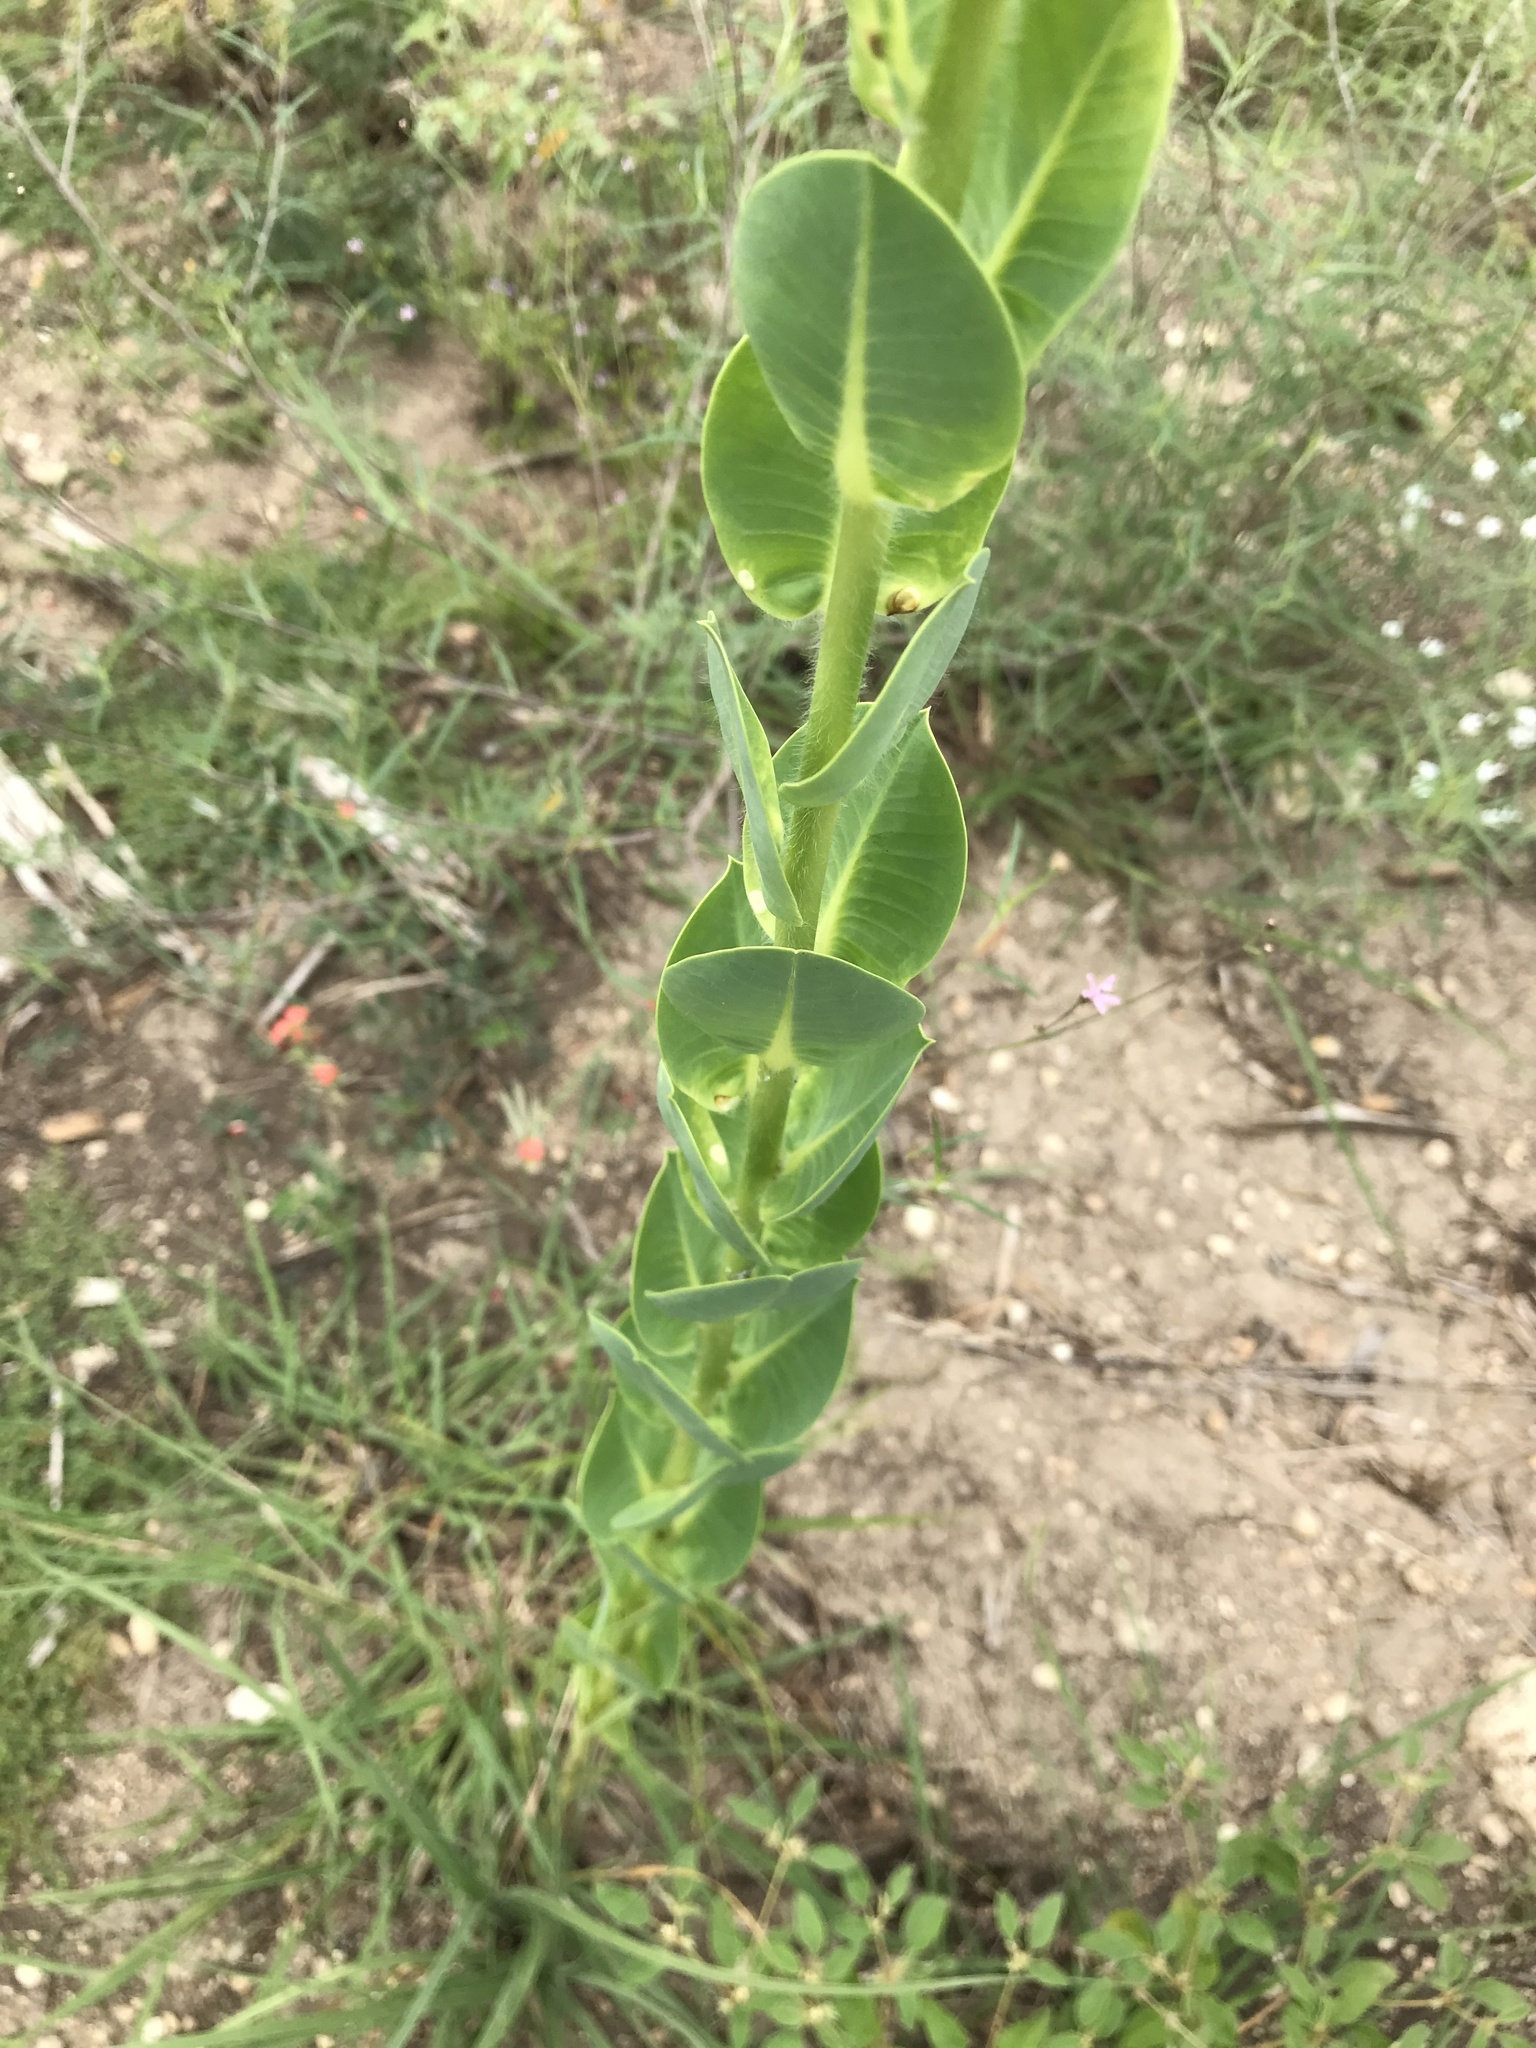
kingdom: Plantae
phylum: Tracheophyta
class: Magnoliopsida
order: Malpighiales
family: Euphorbiaceae
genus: Euphorbia
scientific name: Euphorbia marginata
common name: Ghostweed
